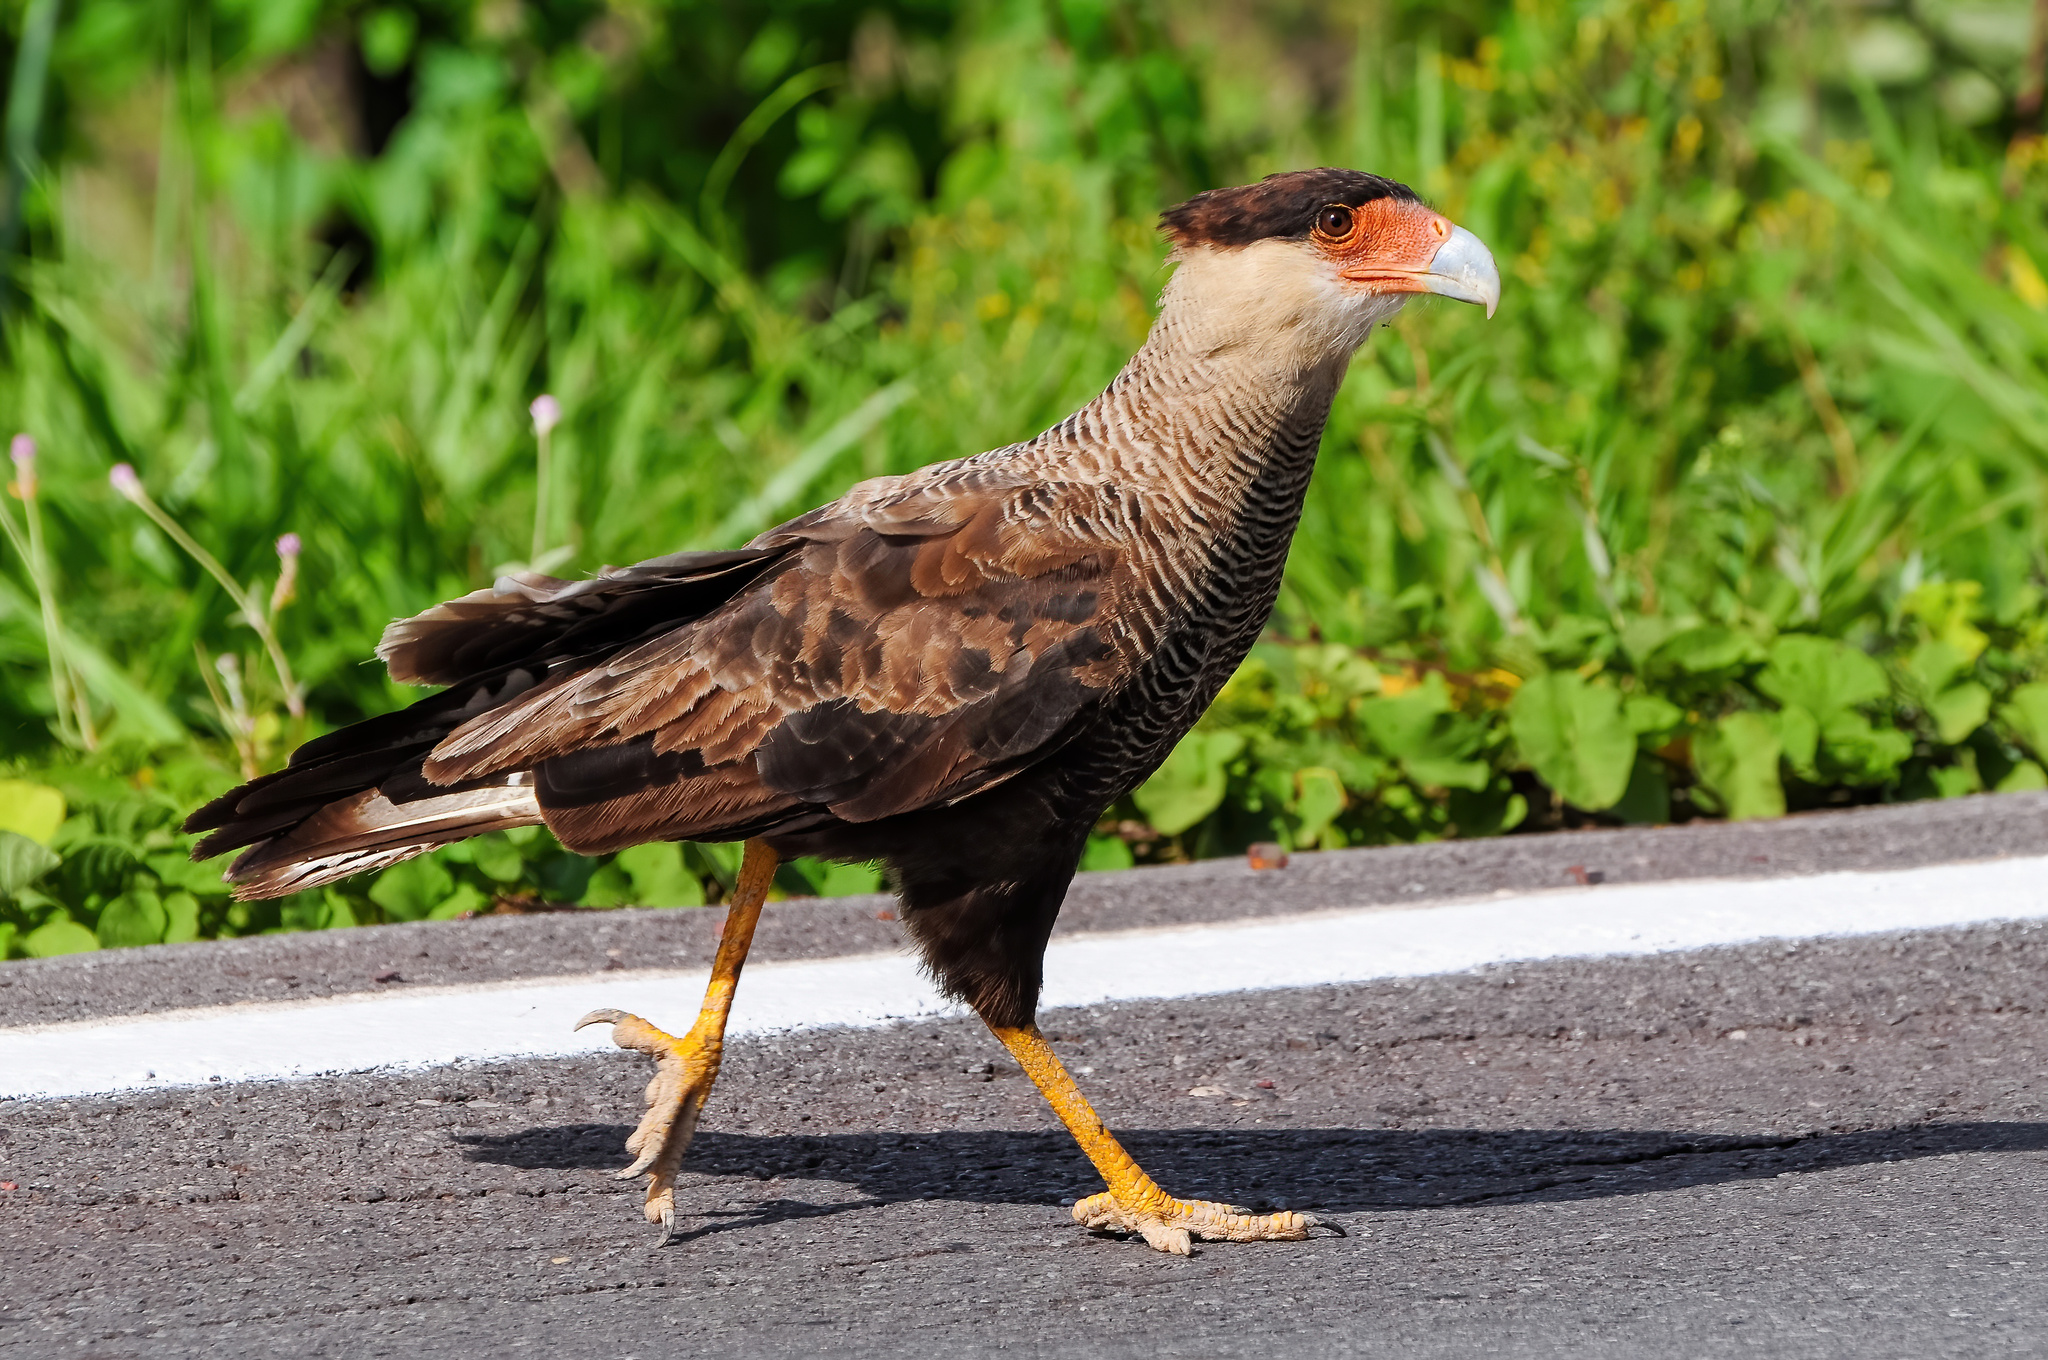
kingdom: Animalia
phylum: Chordata
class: Aves
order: Falconiformes
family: Falconidae
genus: Caracara
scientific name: Caracara plancus
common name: Southern caracara
